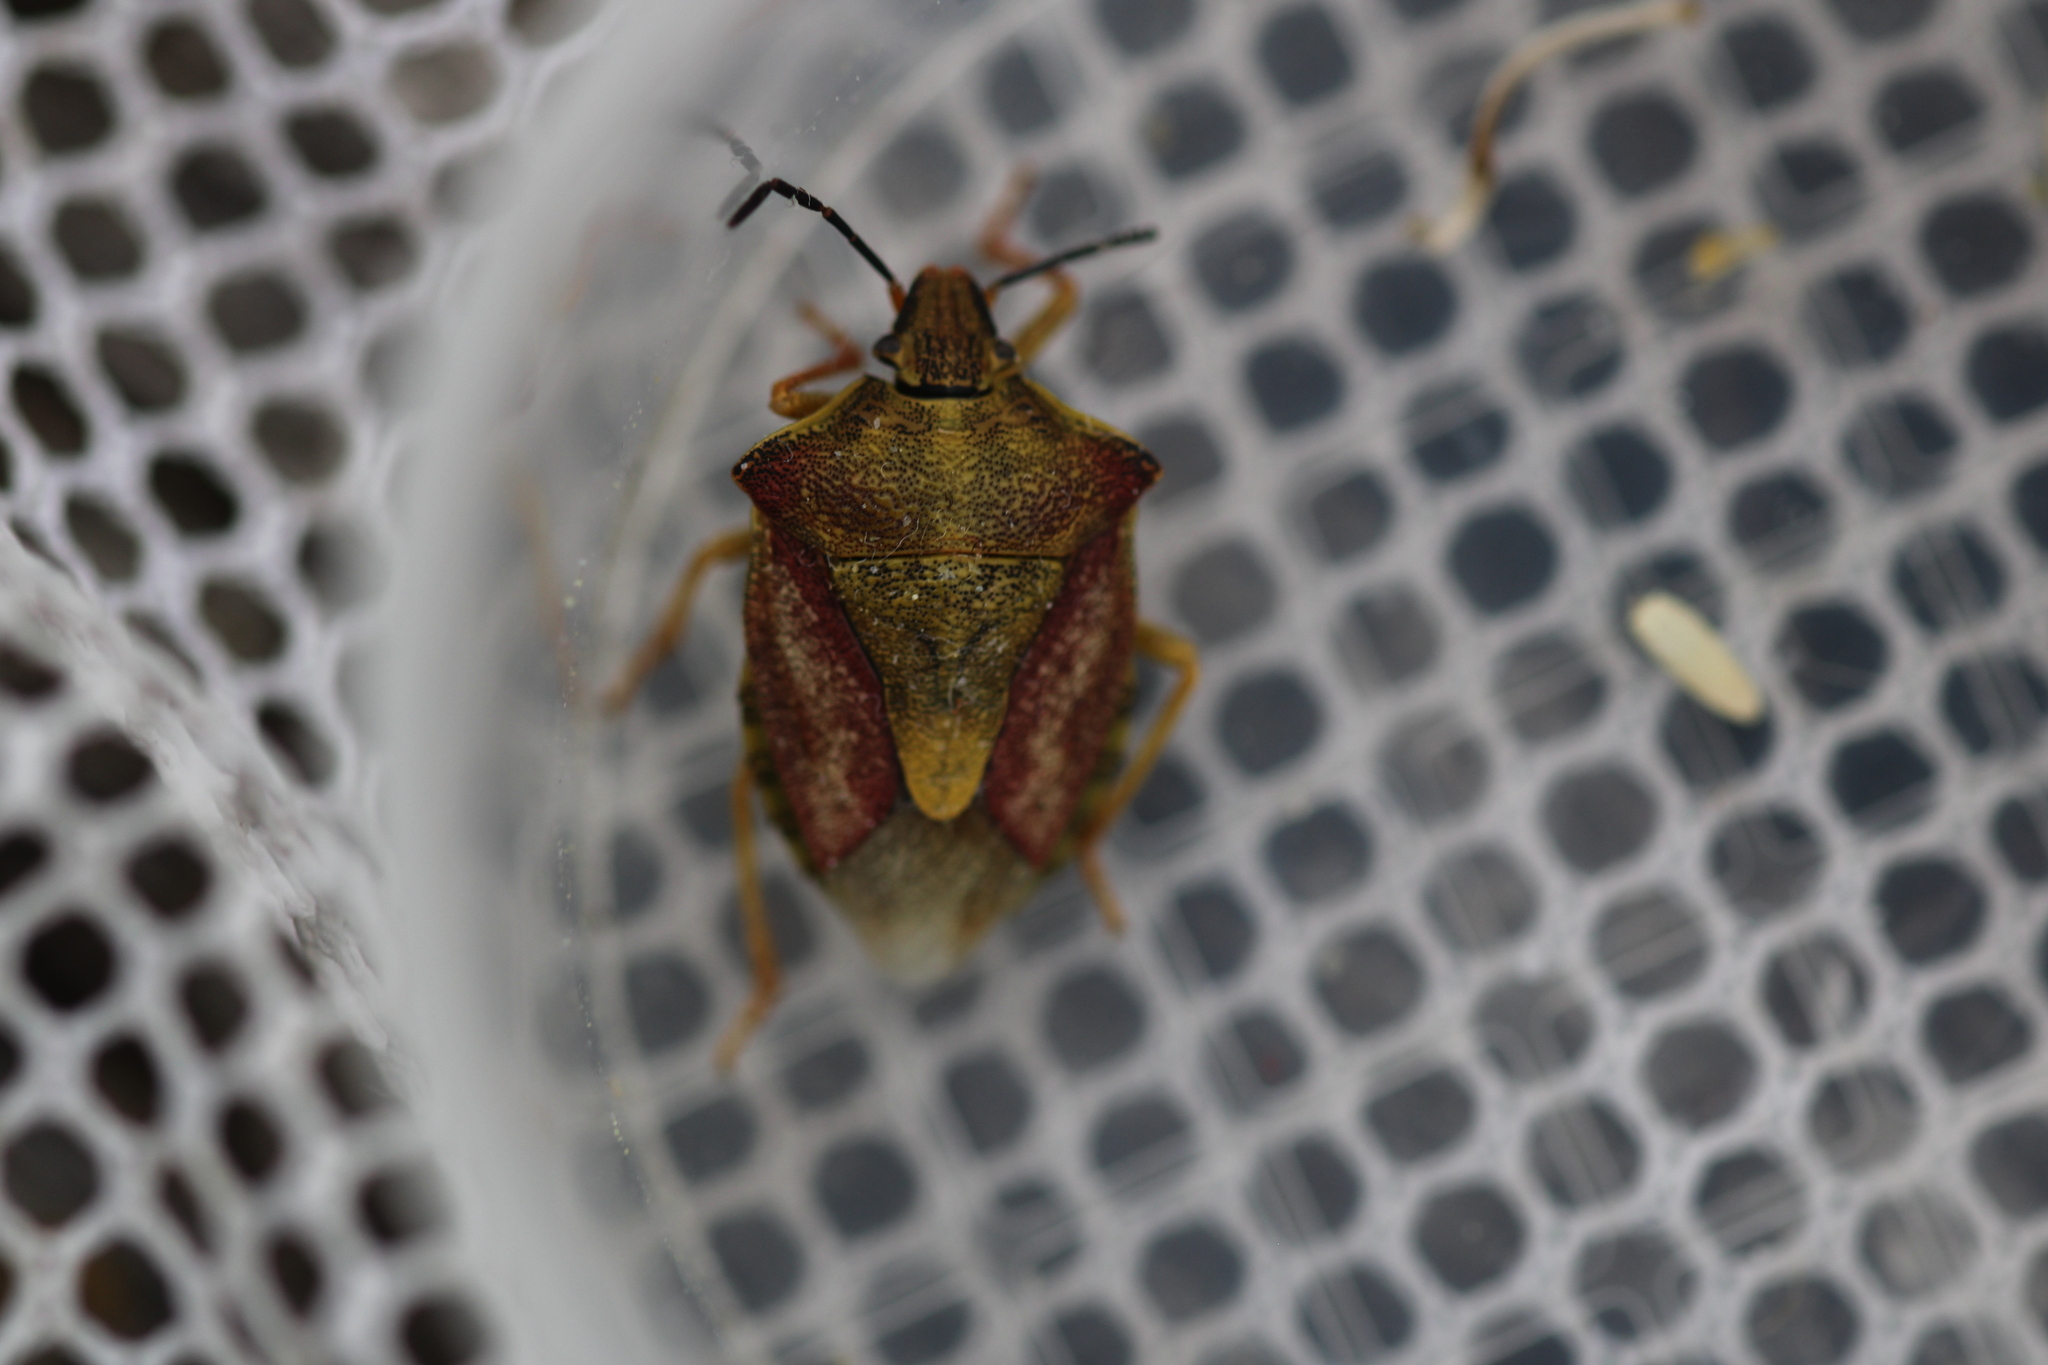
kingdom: Animalia
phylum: Arthropoda
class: Insecta
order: Hemiptera
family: Pentatomidae
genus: Carpocoris
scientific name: Carpocoris purpureipennis
